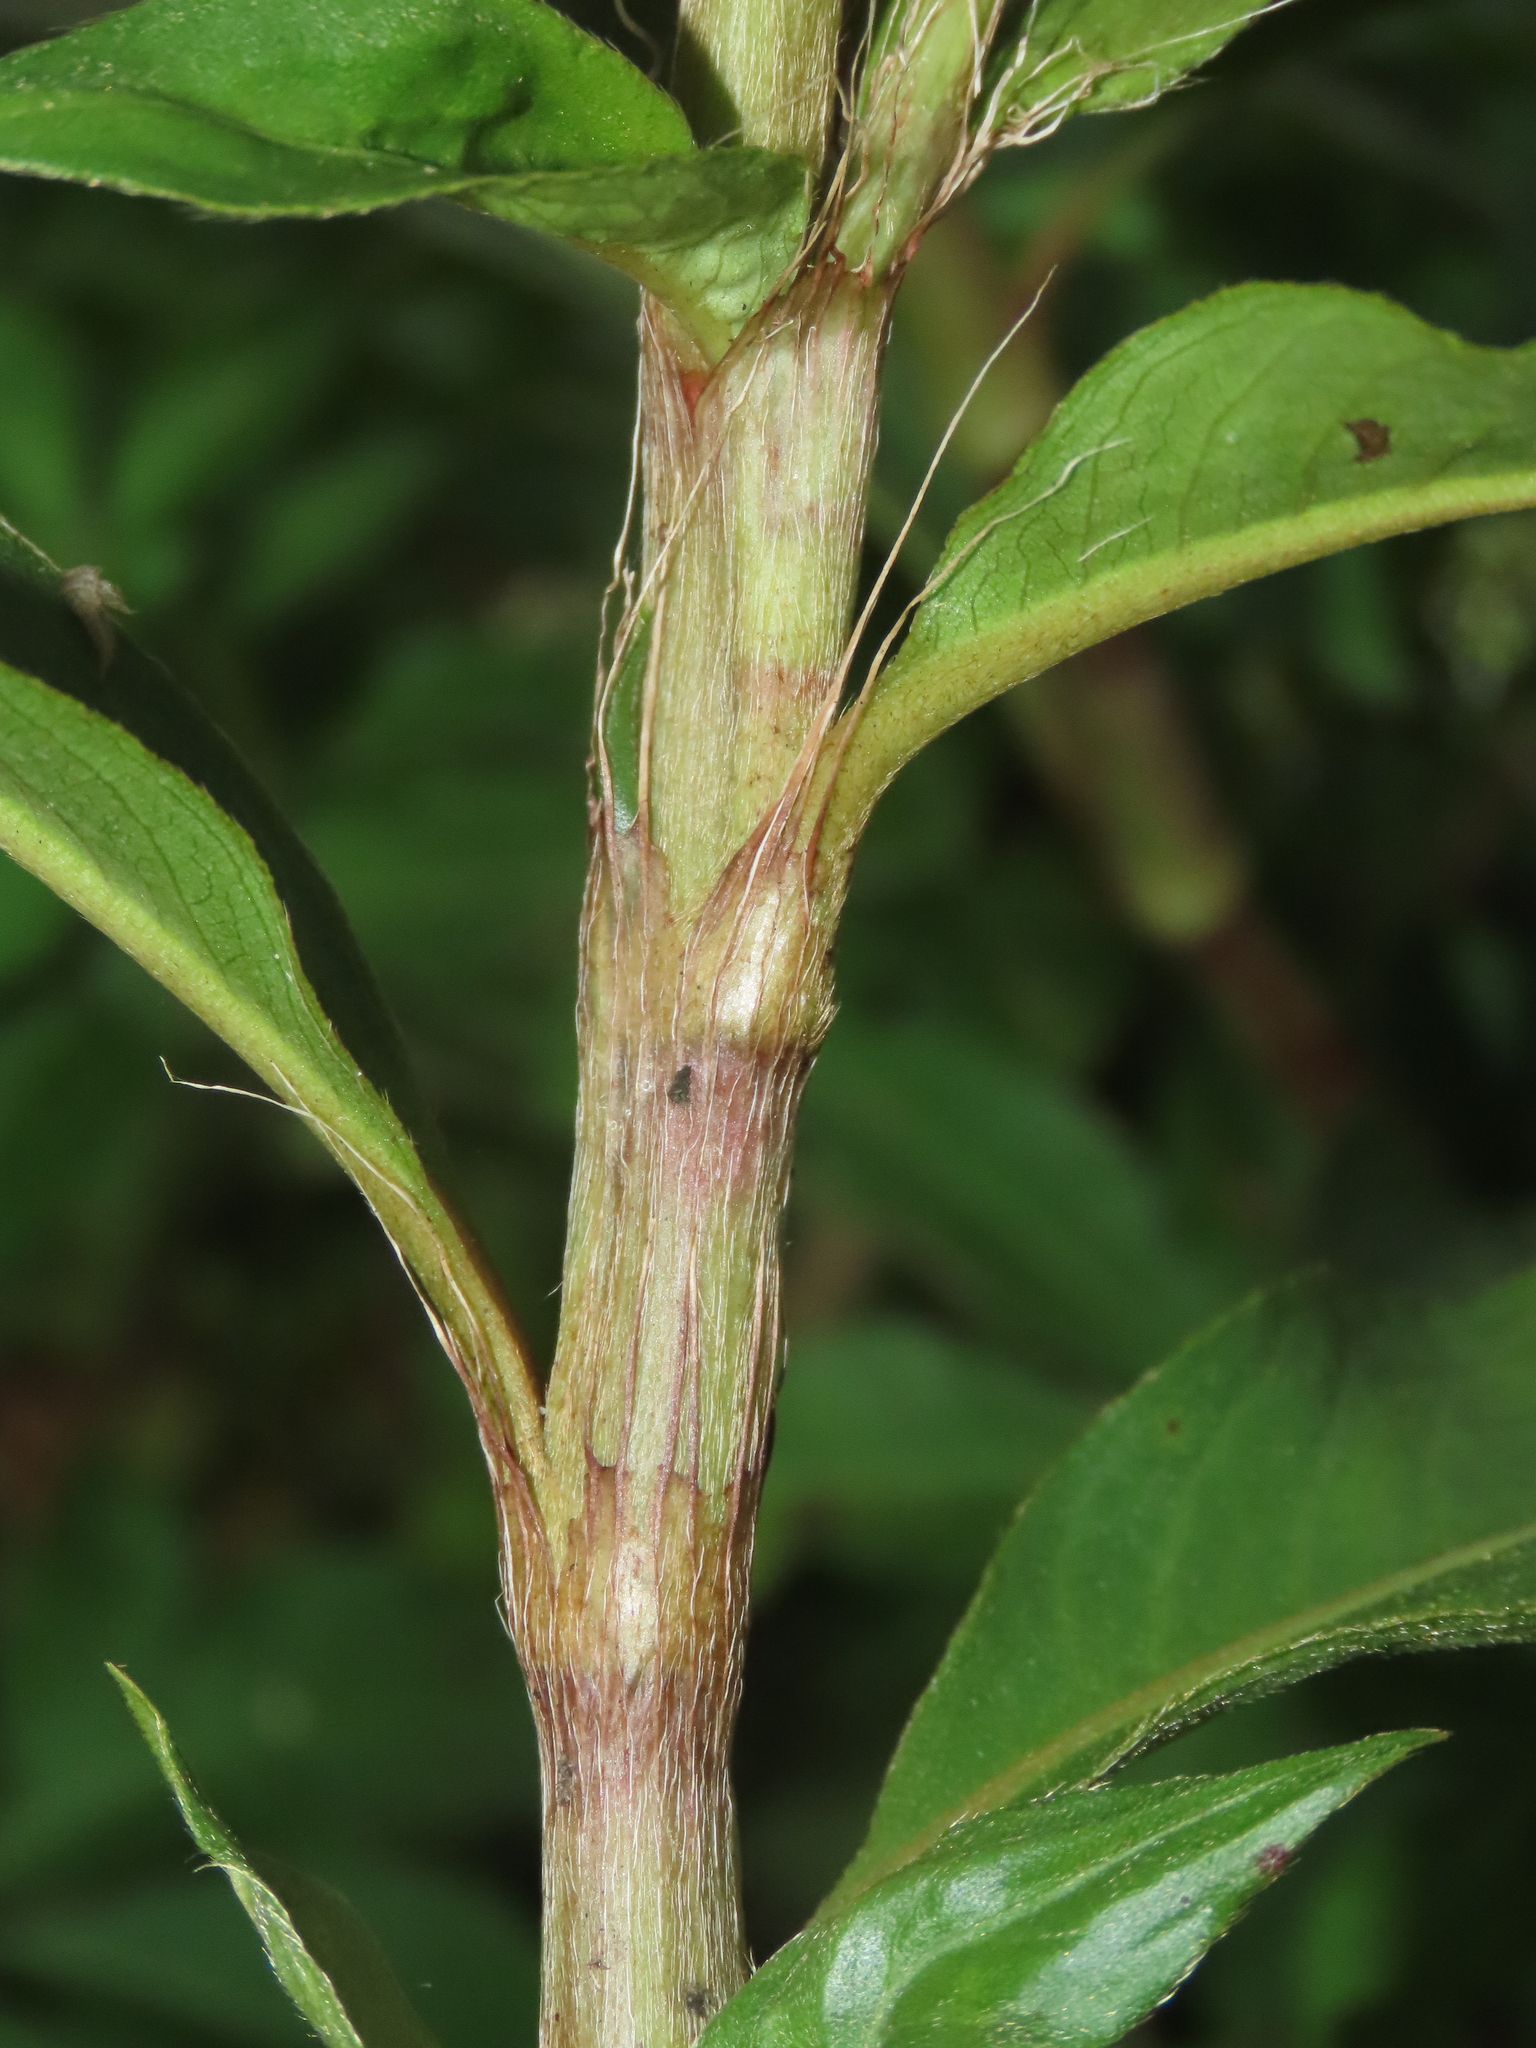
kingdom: Plantae
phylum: Tracheophyta
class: Magnoliopsida
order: Caryophyllales
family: Polygonaceae
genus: Persicaria
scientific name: Persicaria barbata
